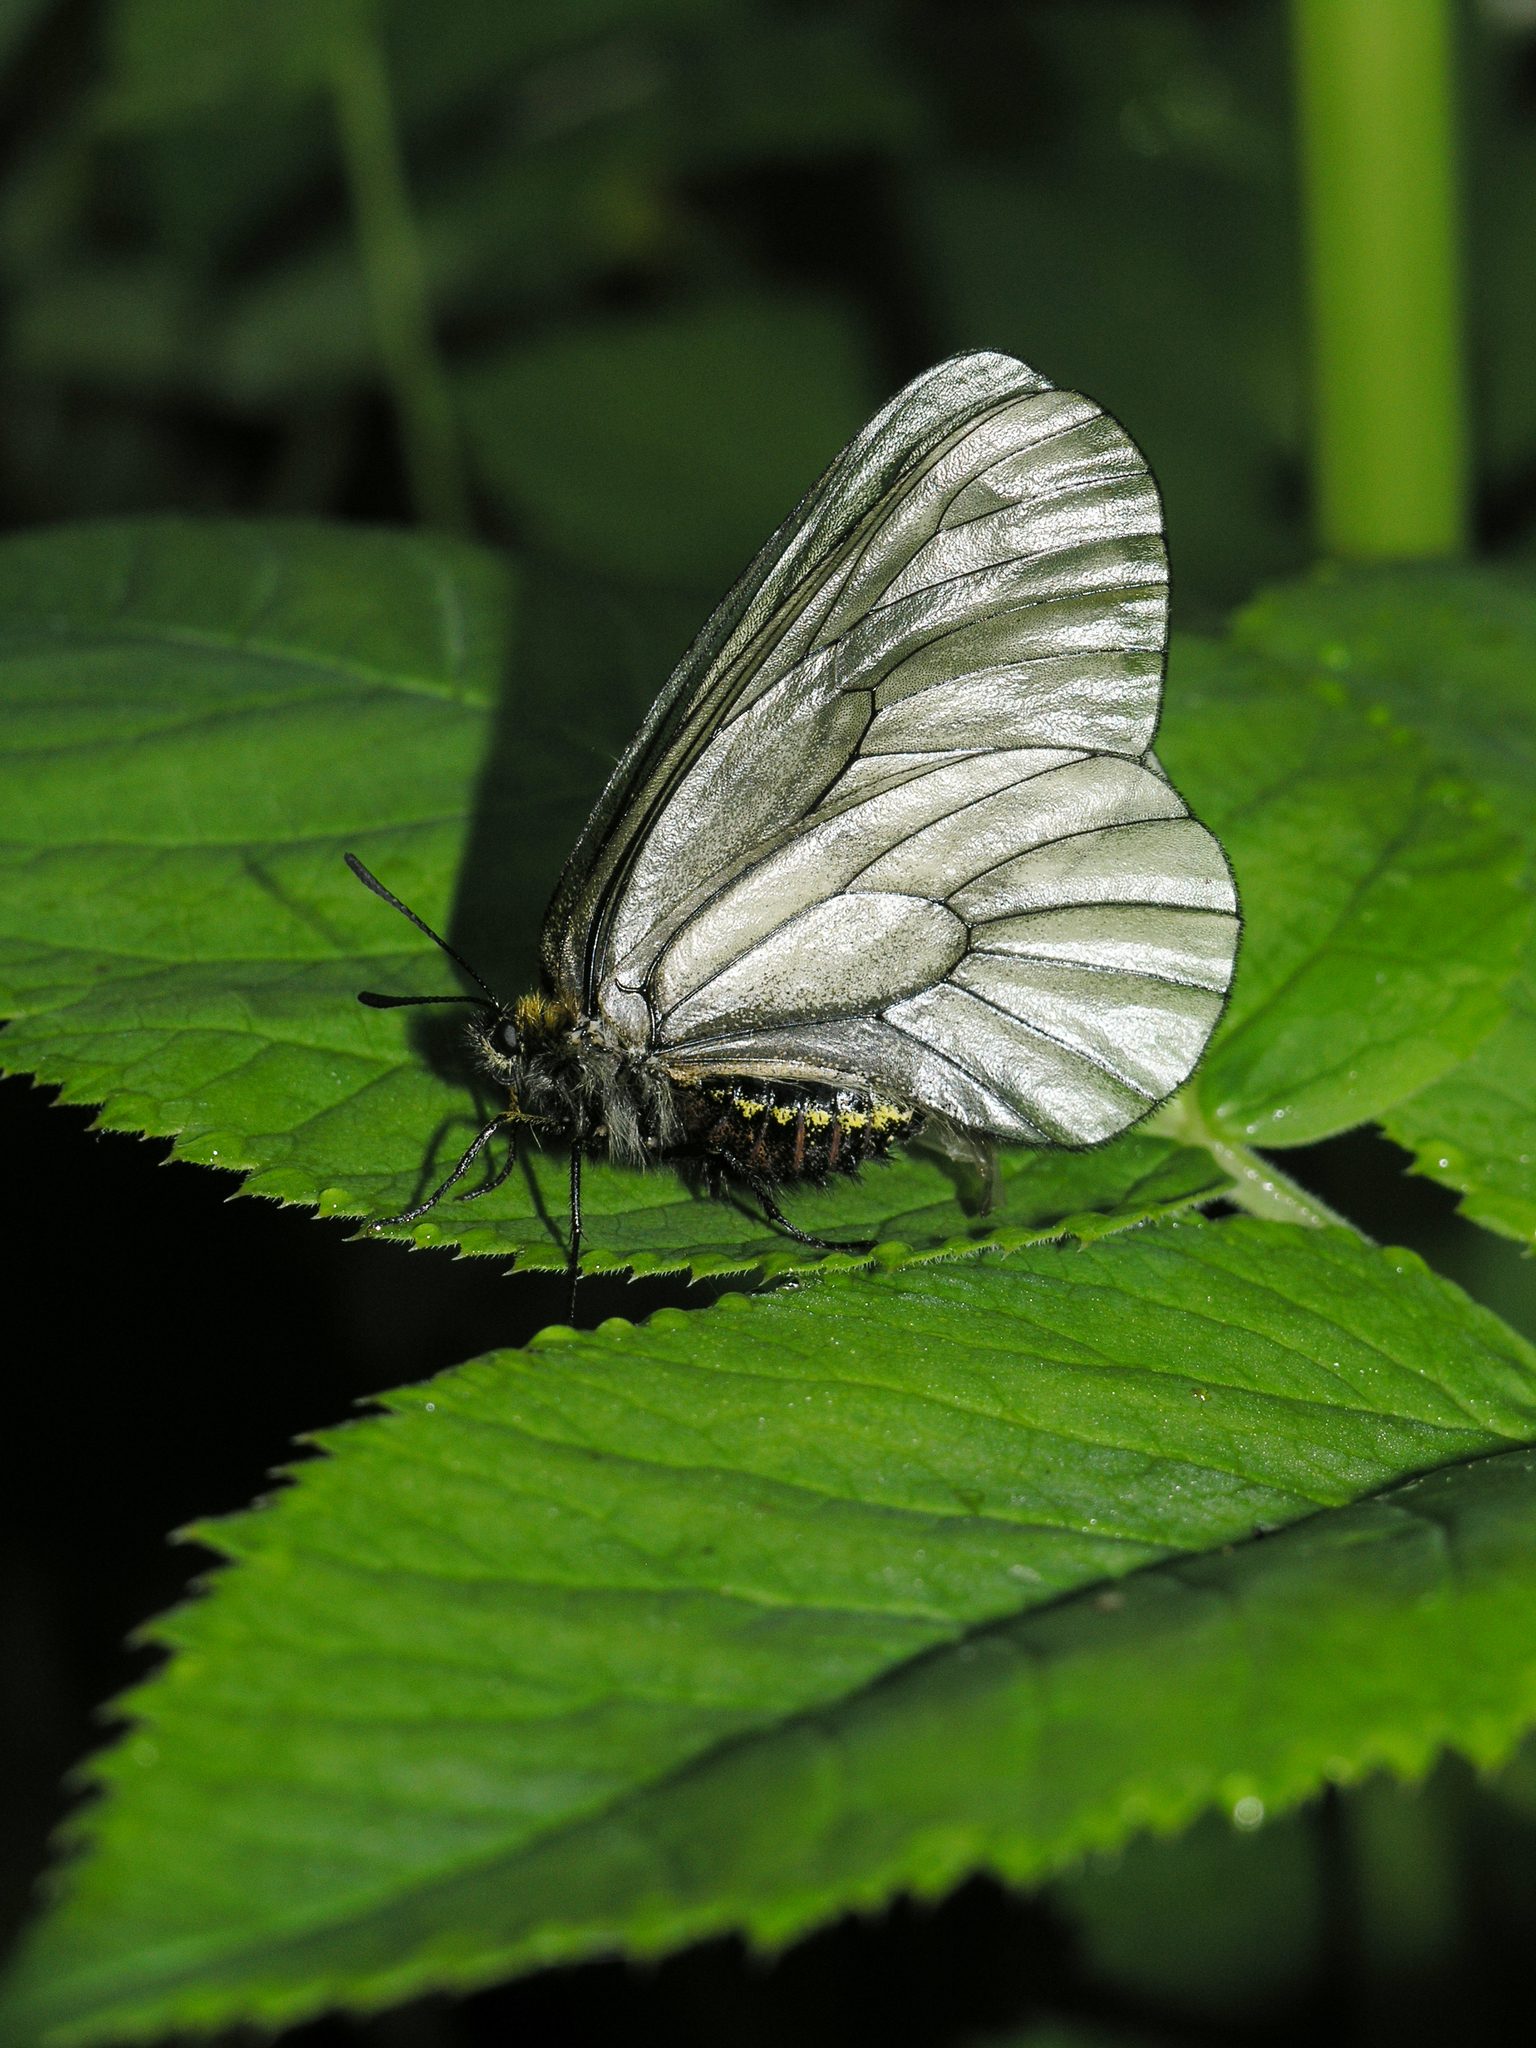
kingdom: Animalia
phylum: Arthropoda
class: Insecta
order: Lepidoptera
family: Papilionidae
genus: Parnassius
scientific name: Parnassius stubbendorfii
